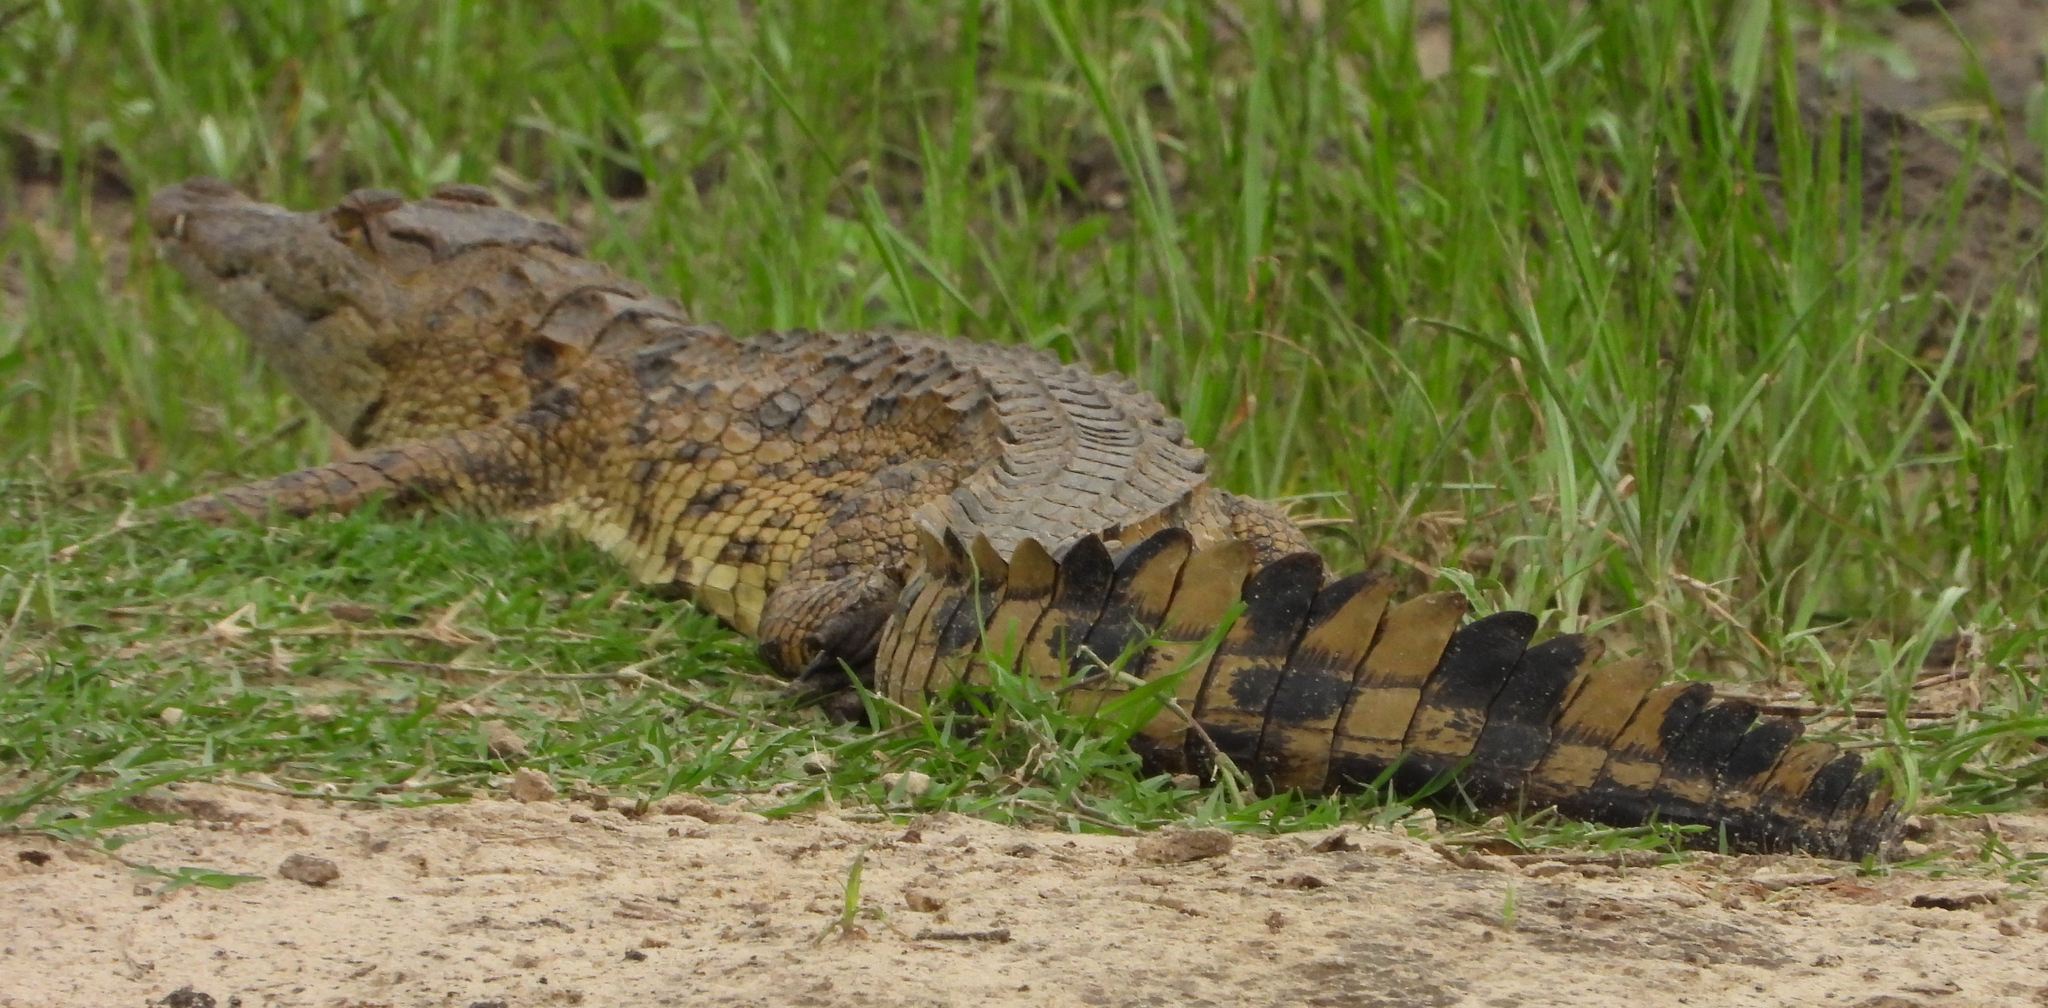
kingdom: Animalia
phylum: Chordata
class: Crocodylia
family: Crocodylidae
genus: Crocodylus
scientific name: Crocodylus niloticus
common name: Nile crocodile
